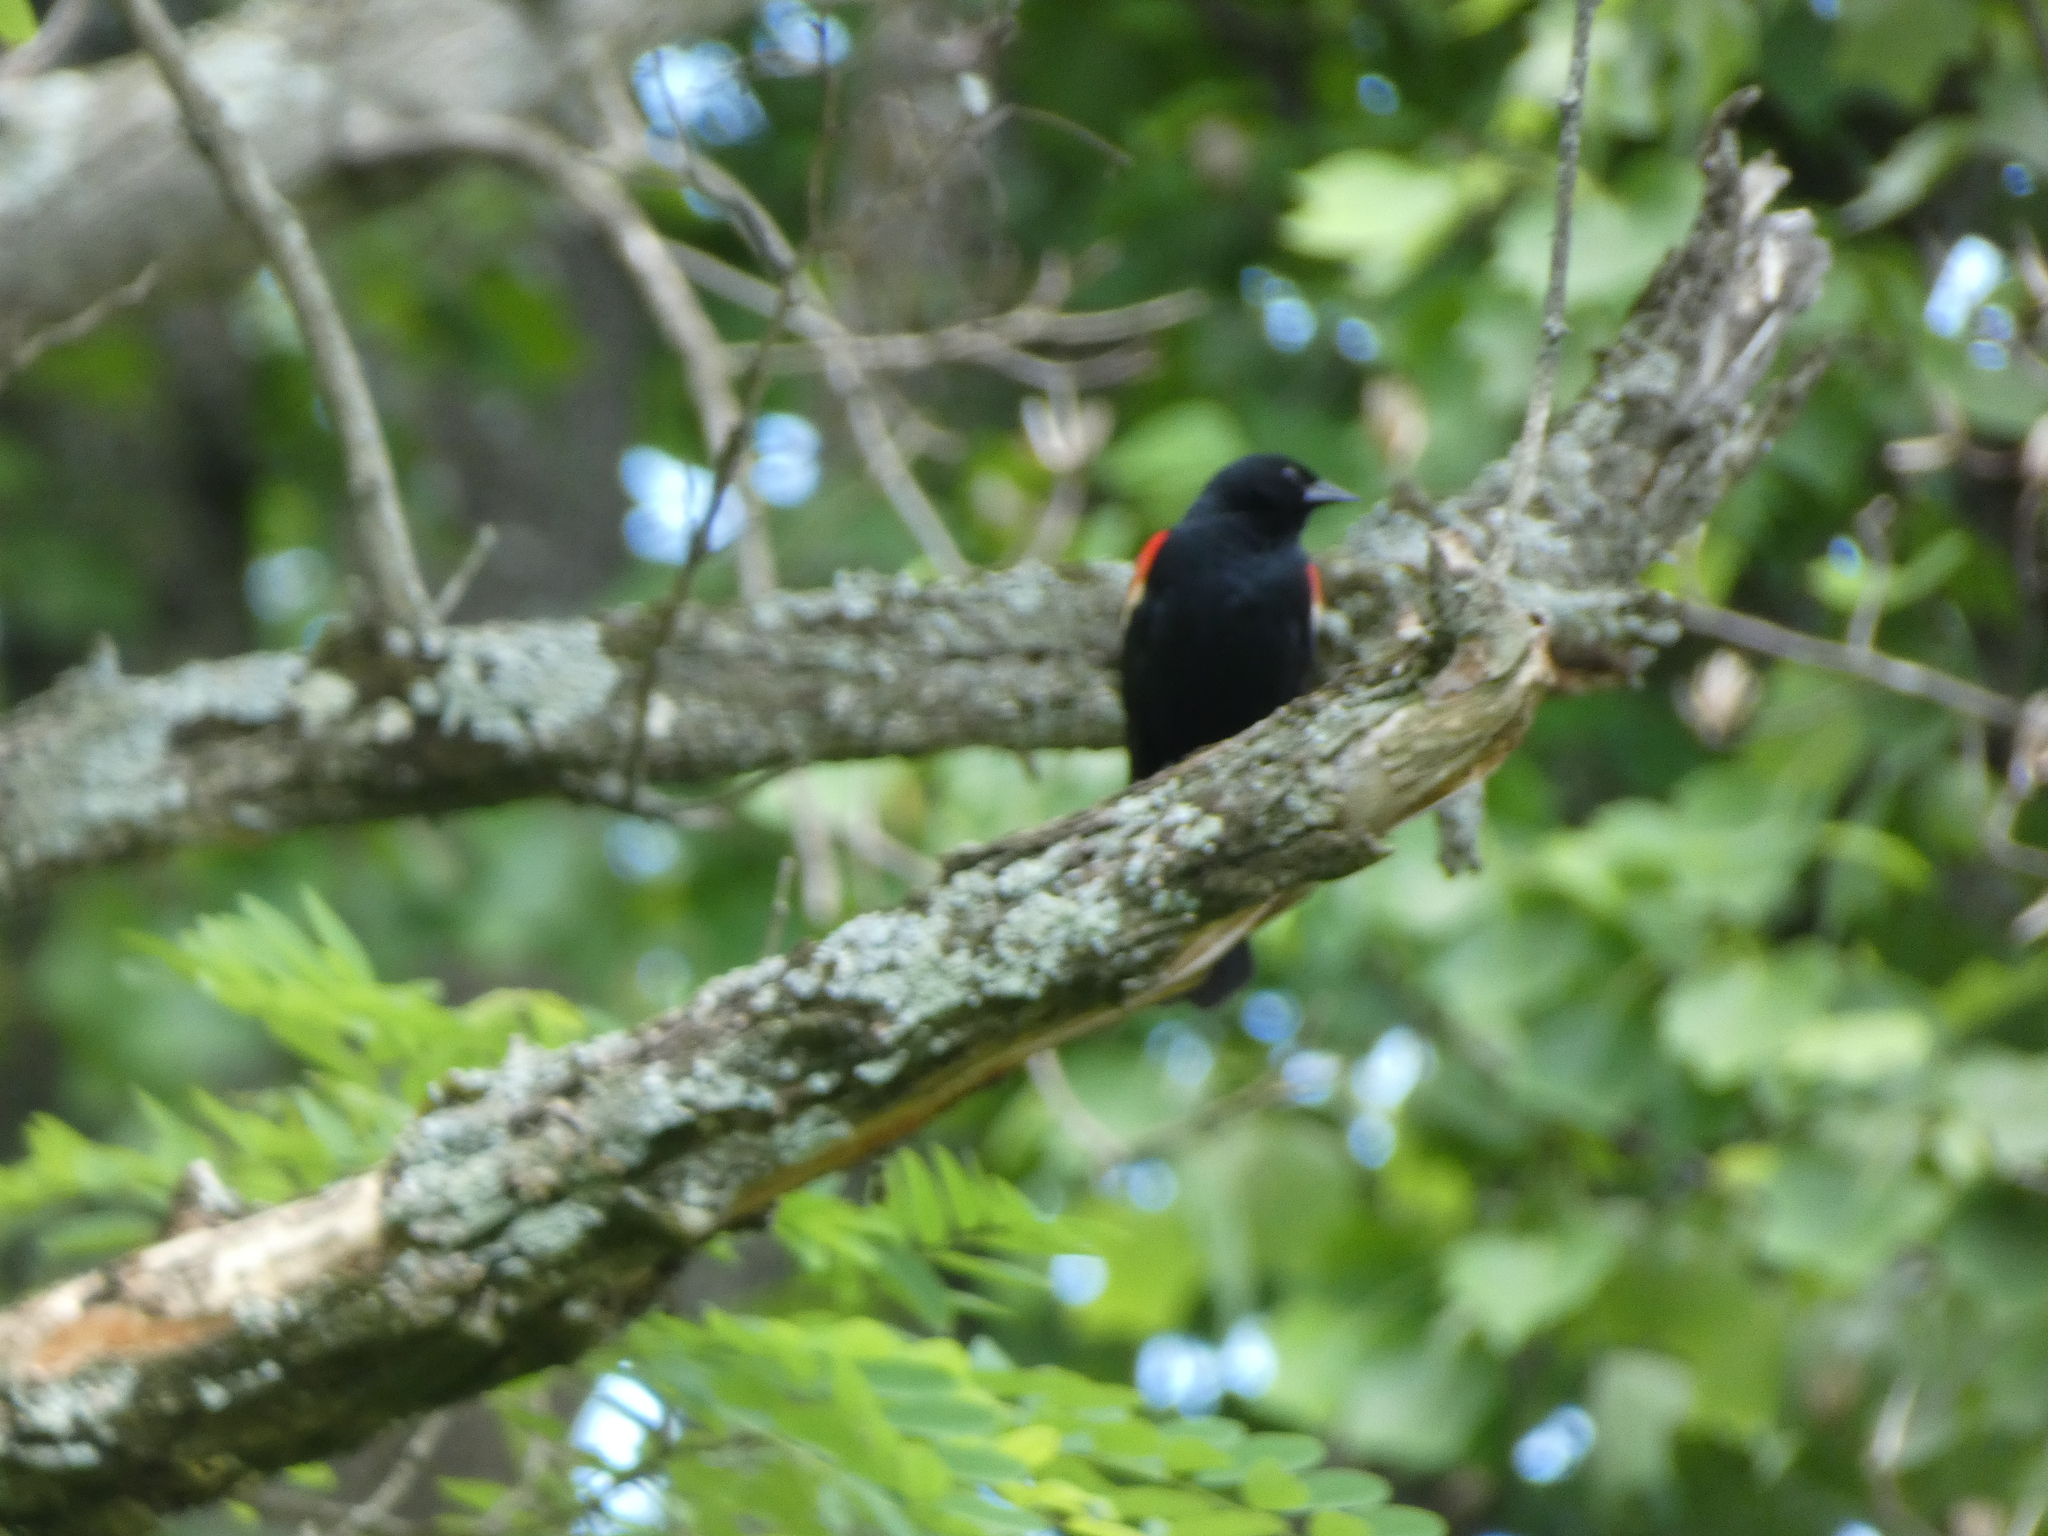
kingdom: Animalia
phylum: Chordata
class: Aves
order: Passeriformes
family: Icteridae
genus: Agelaius
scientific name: Agelaius phoeniceus
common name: Red-winged blackbird
